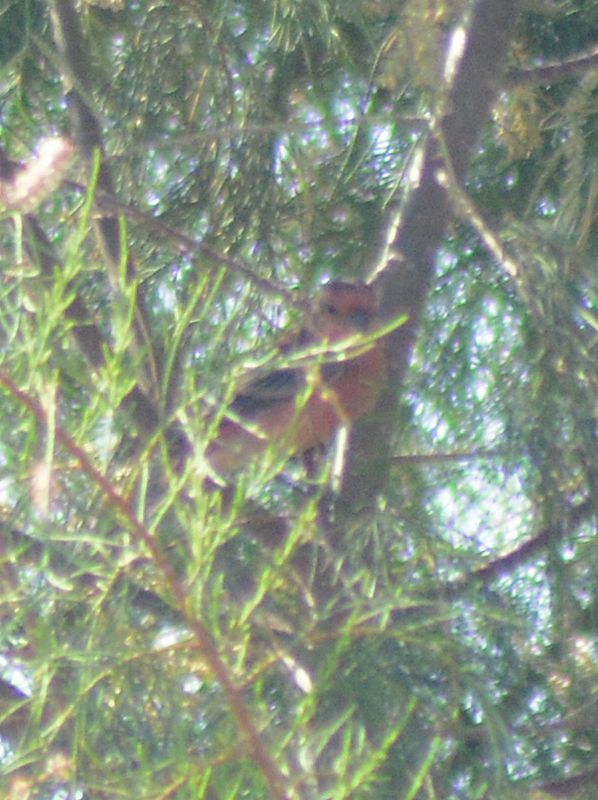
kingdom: Animalia
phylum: Chordata
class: Aves
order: Passeriformes
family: Fringillidae
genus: Haemorhous
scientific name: Haemorhous mexicanus
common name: House finch
